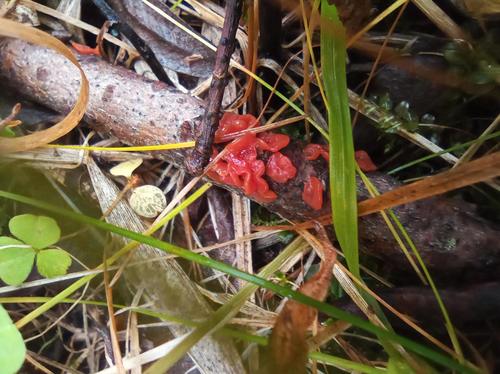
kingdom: Fungi
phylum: Basidiomycota
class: Agaricomycetes
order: Corticiales
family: Vuilleminiaceae
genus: Cytidia
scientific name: Cytidia salicina
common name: Scarlet splash
